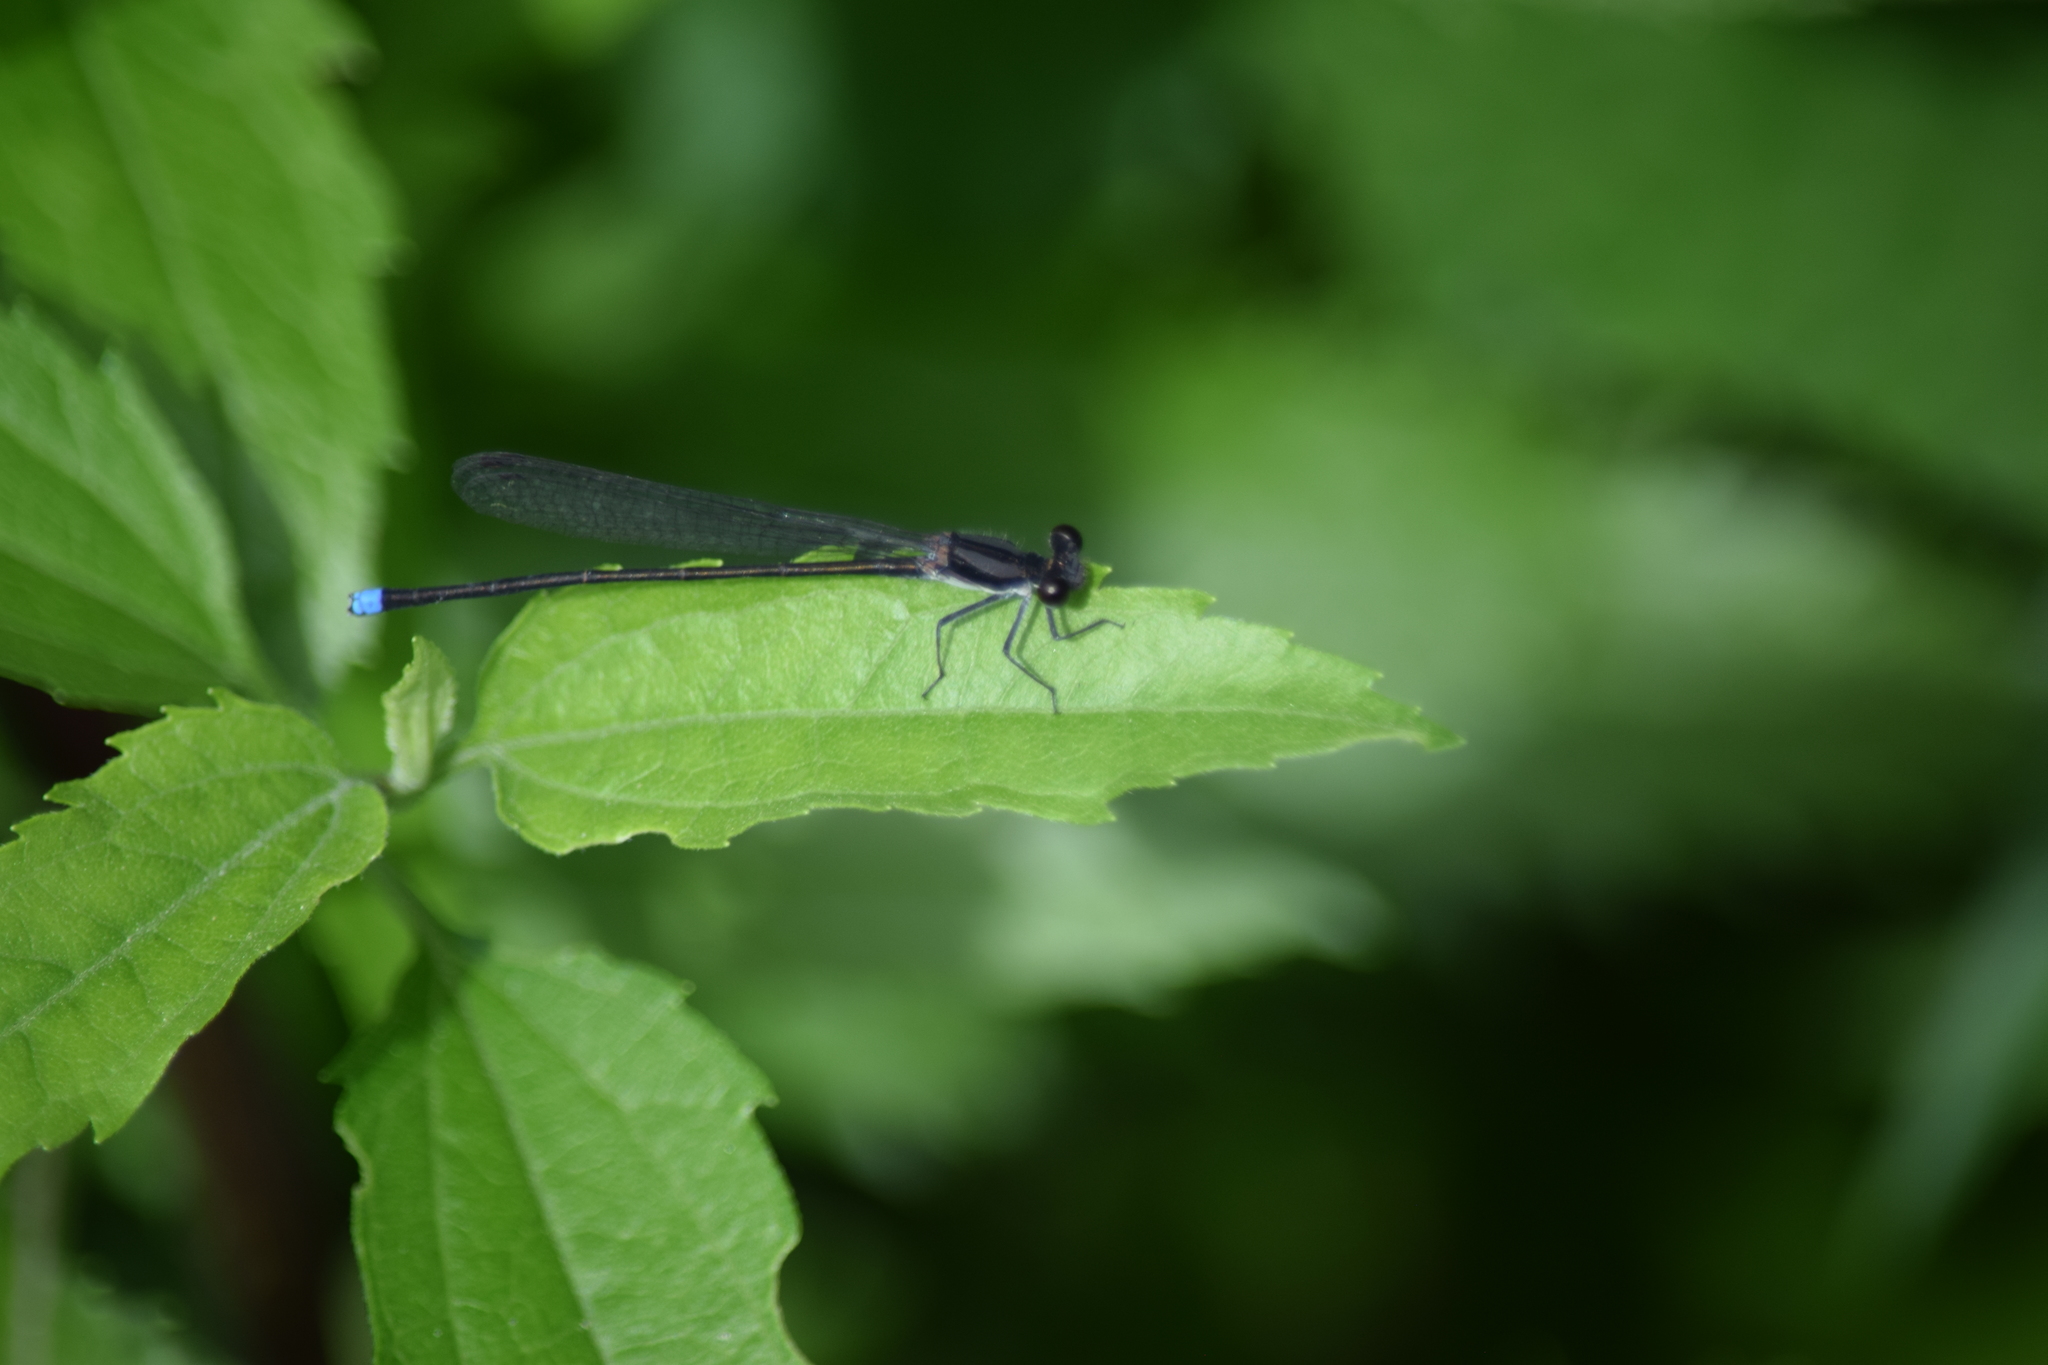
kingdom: Animalia
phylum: Arthropoda
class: Insecta
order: Odonata
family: Coenagrionidae
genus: Argia
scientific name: Argia tibialis
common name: Blue-tipped dancer
